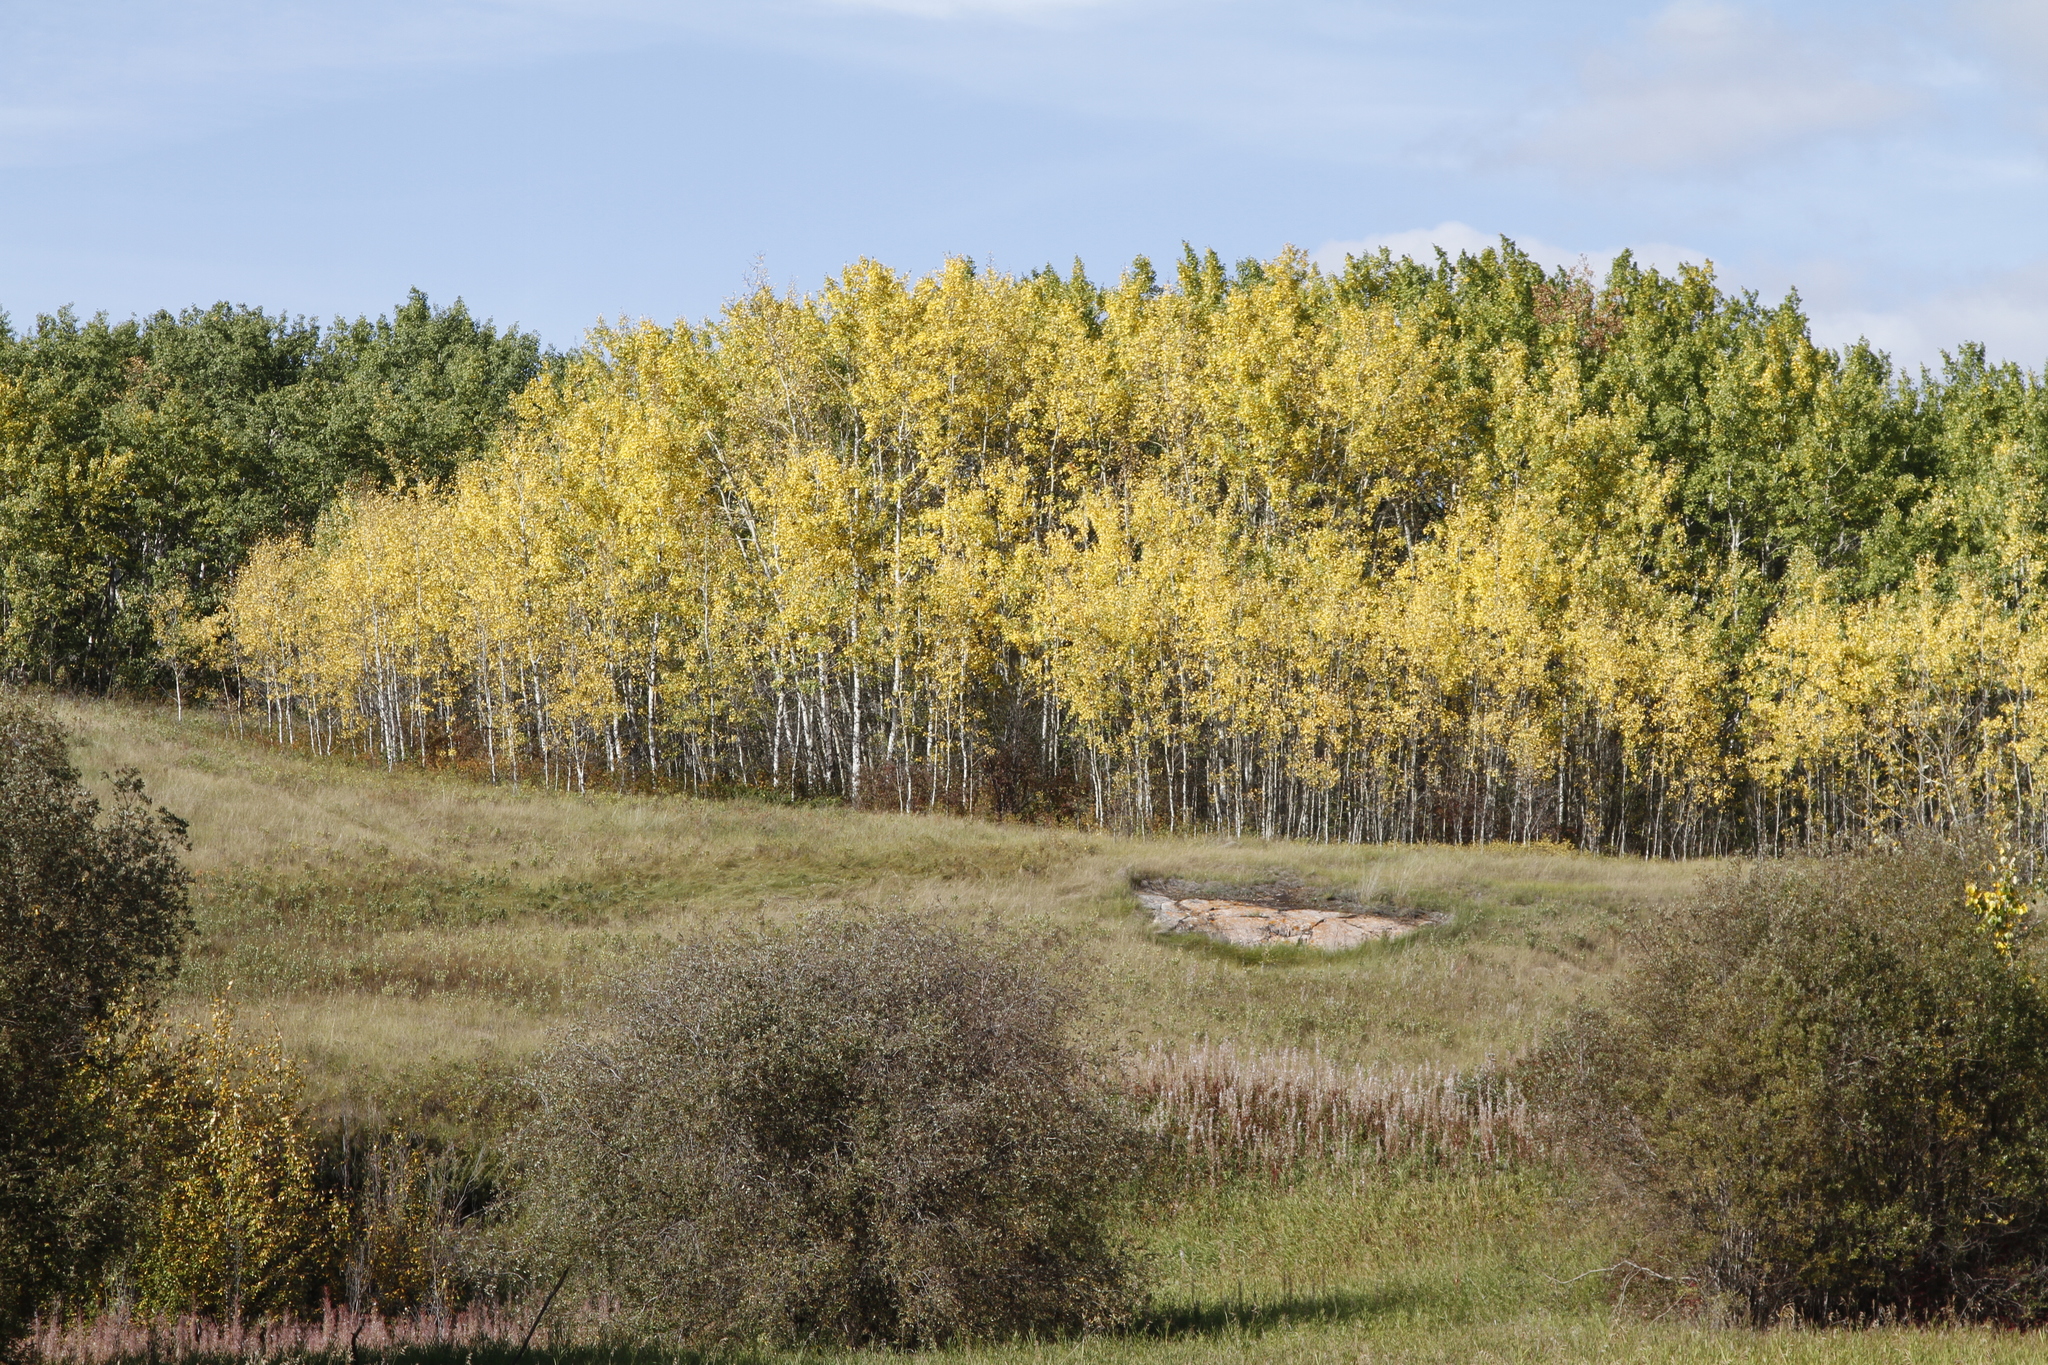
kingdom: Plantae
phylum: Tracheophyta
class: Magnoliopsida
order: Malpighiales
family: Salicaceae
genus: Populus
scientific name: Populus tremuloides
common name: Quaking aspen
